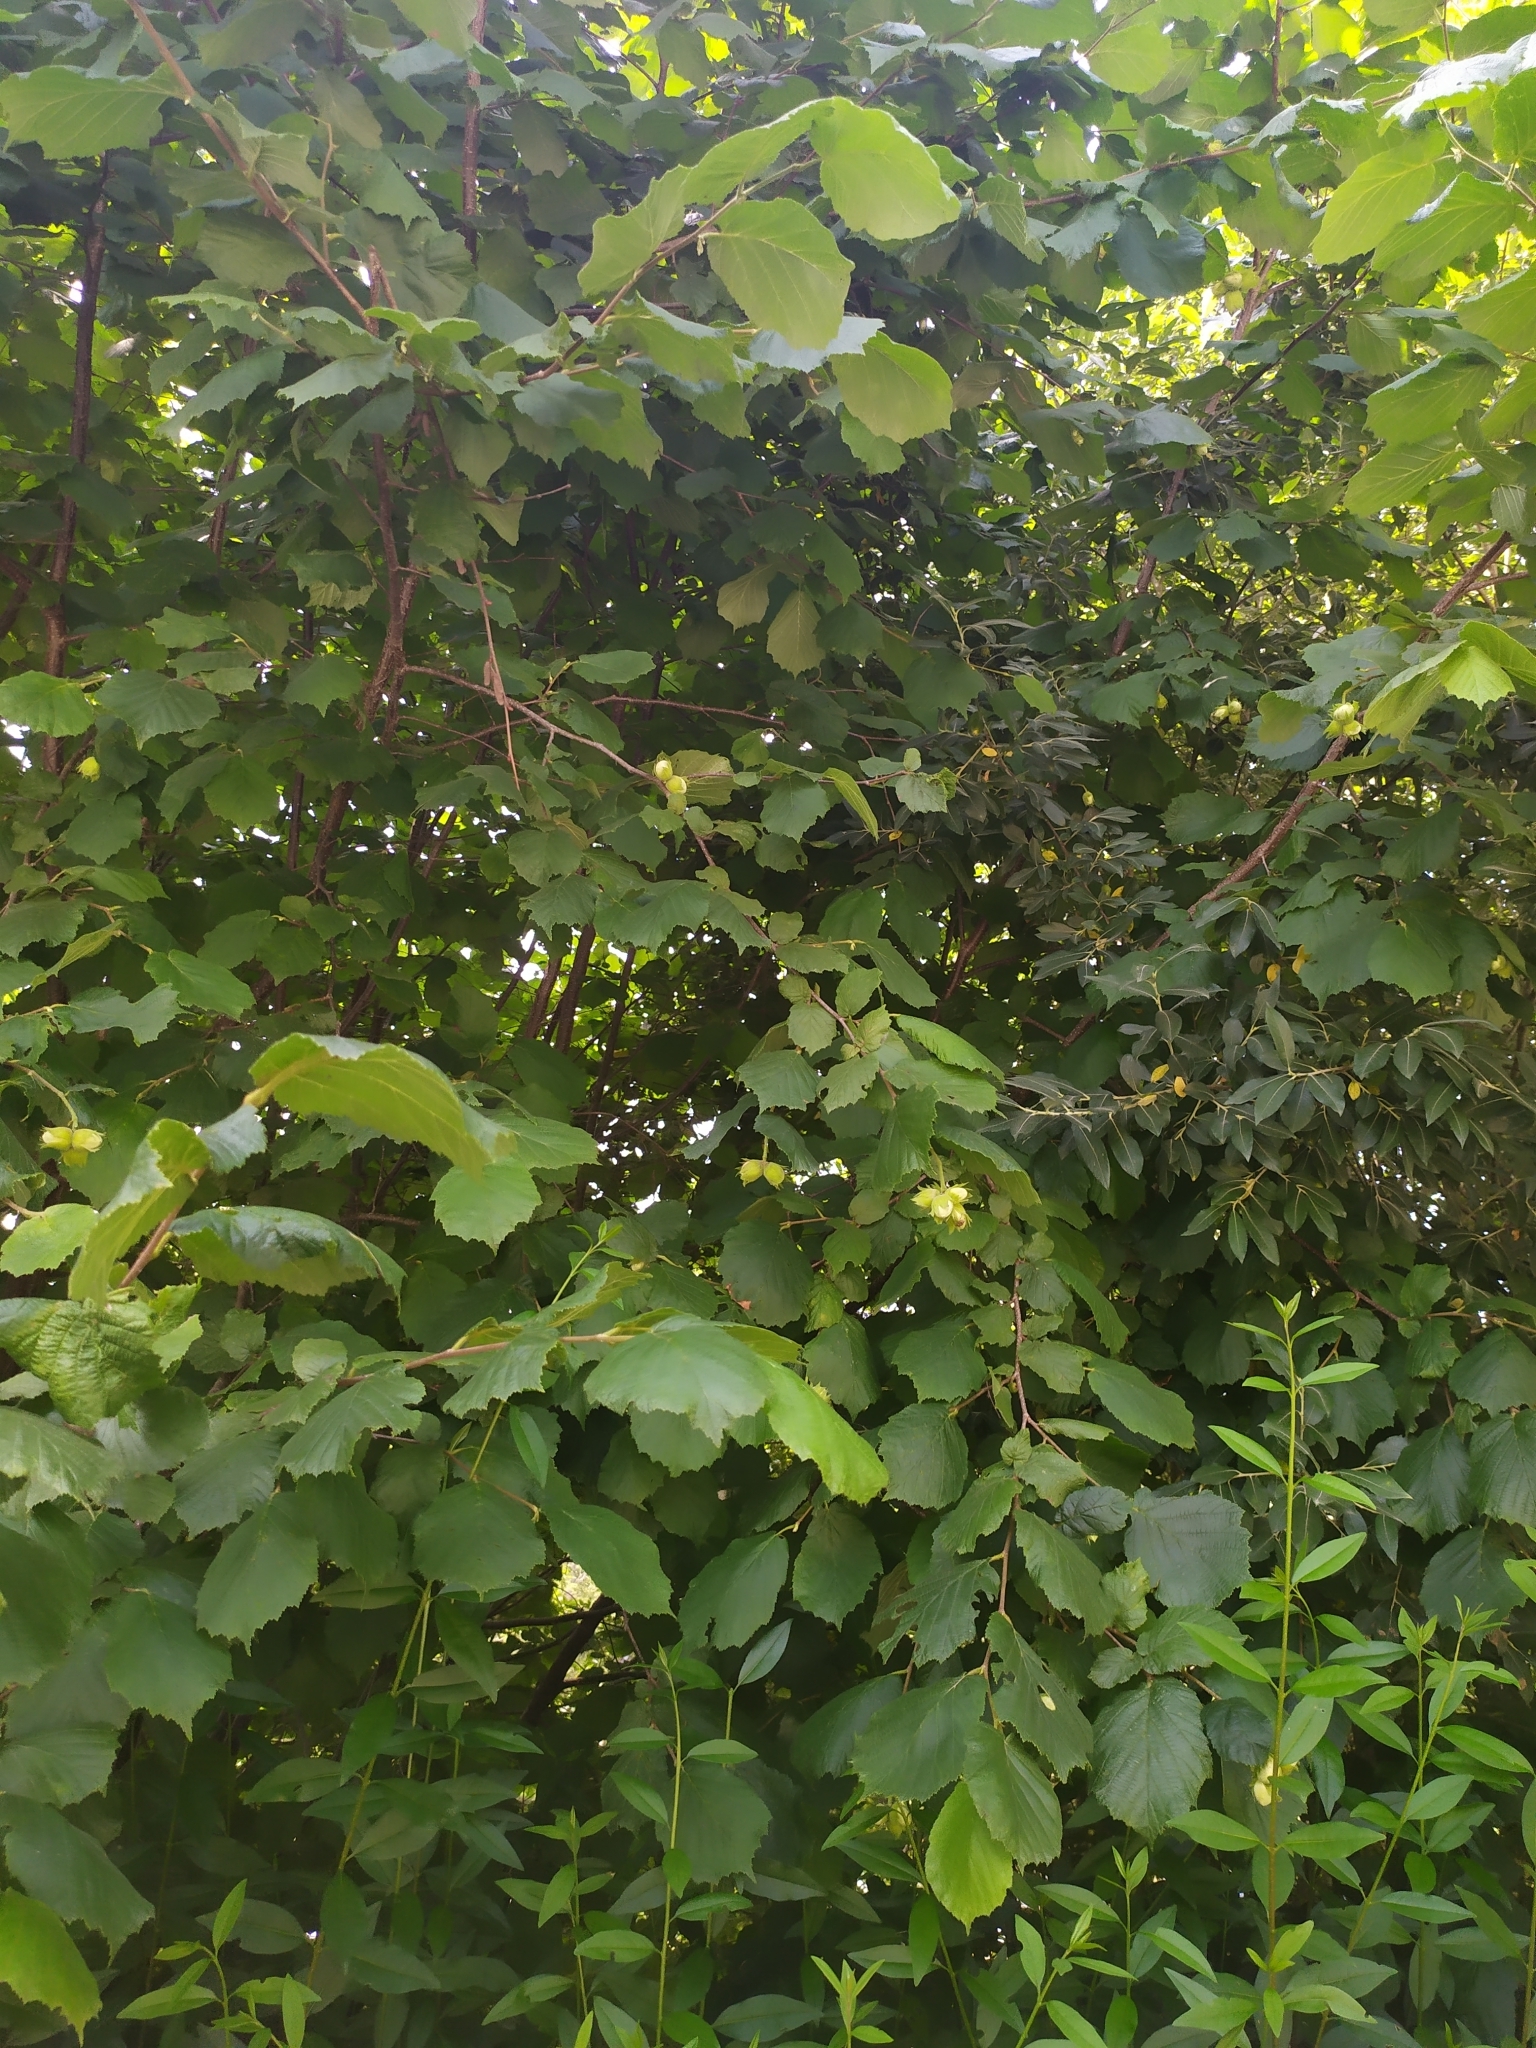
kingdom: Plantae
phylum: Tracheophyta
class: Magnoliopsida
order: Fagales
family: Betulaceae
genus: Corylus
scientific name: Corylus avellana
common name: European hazel
